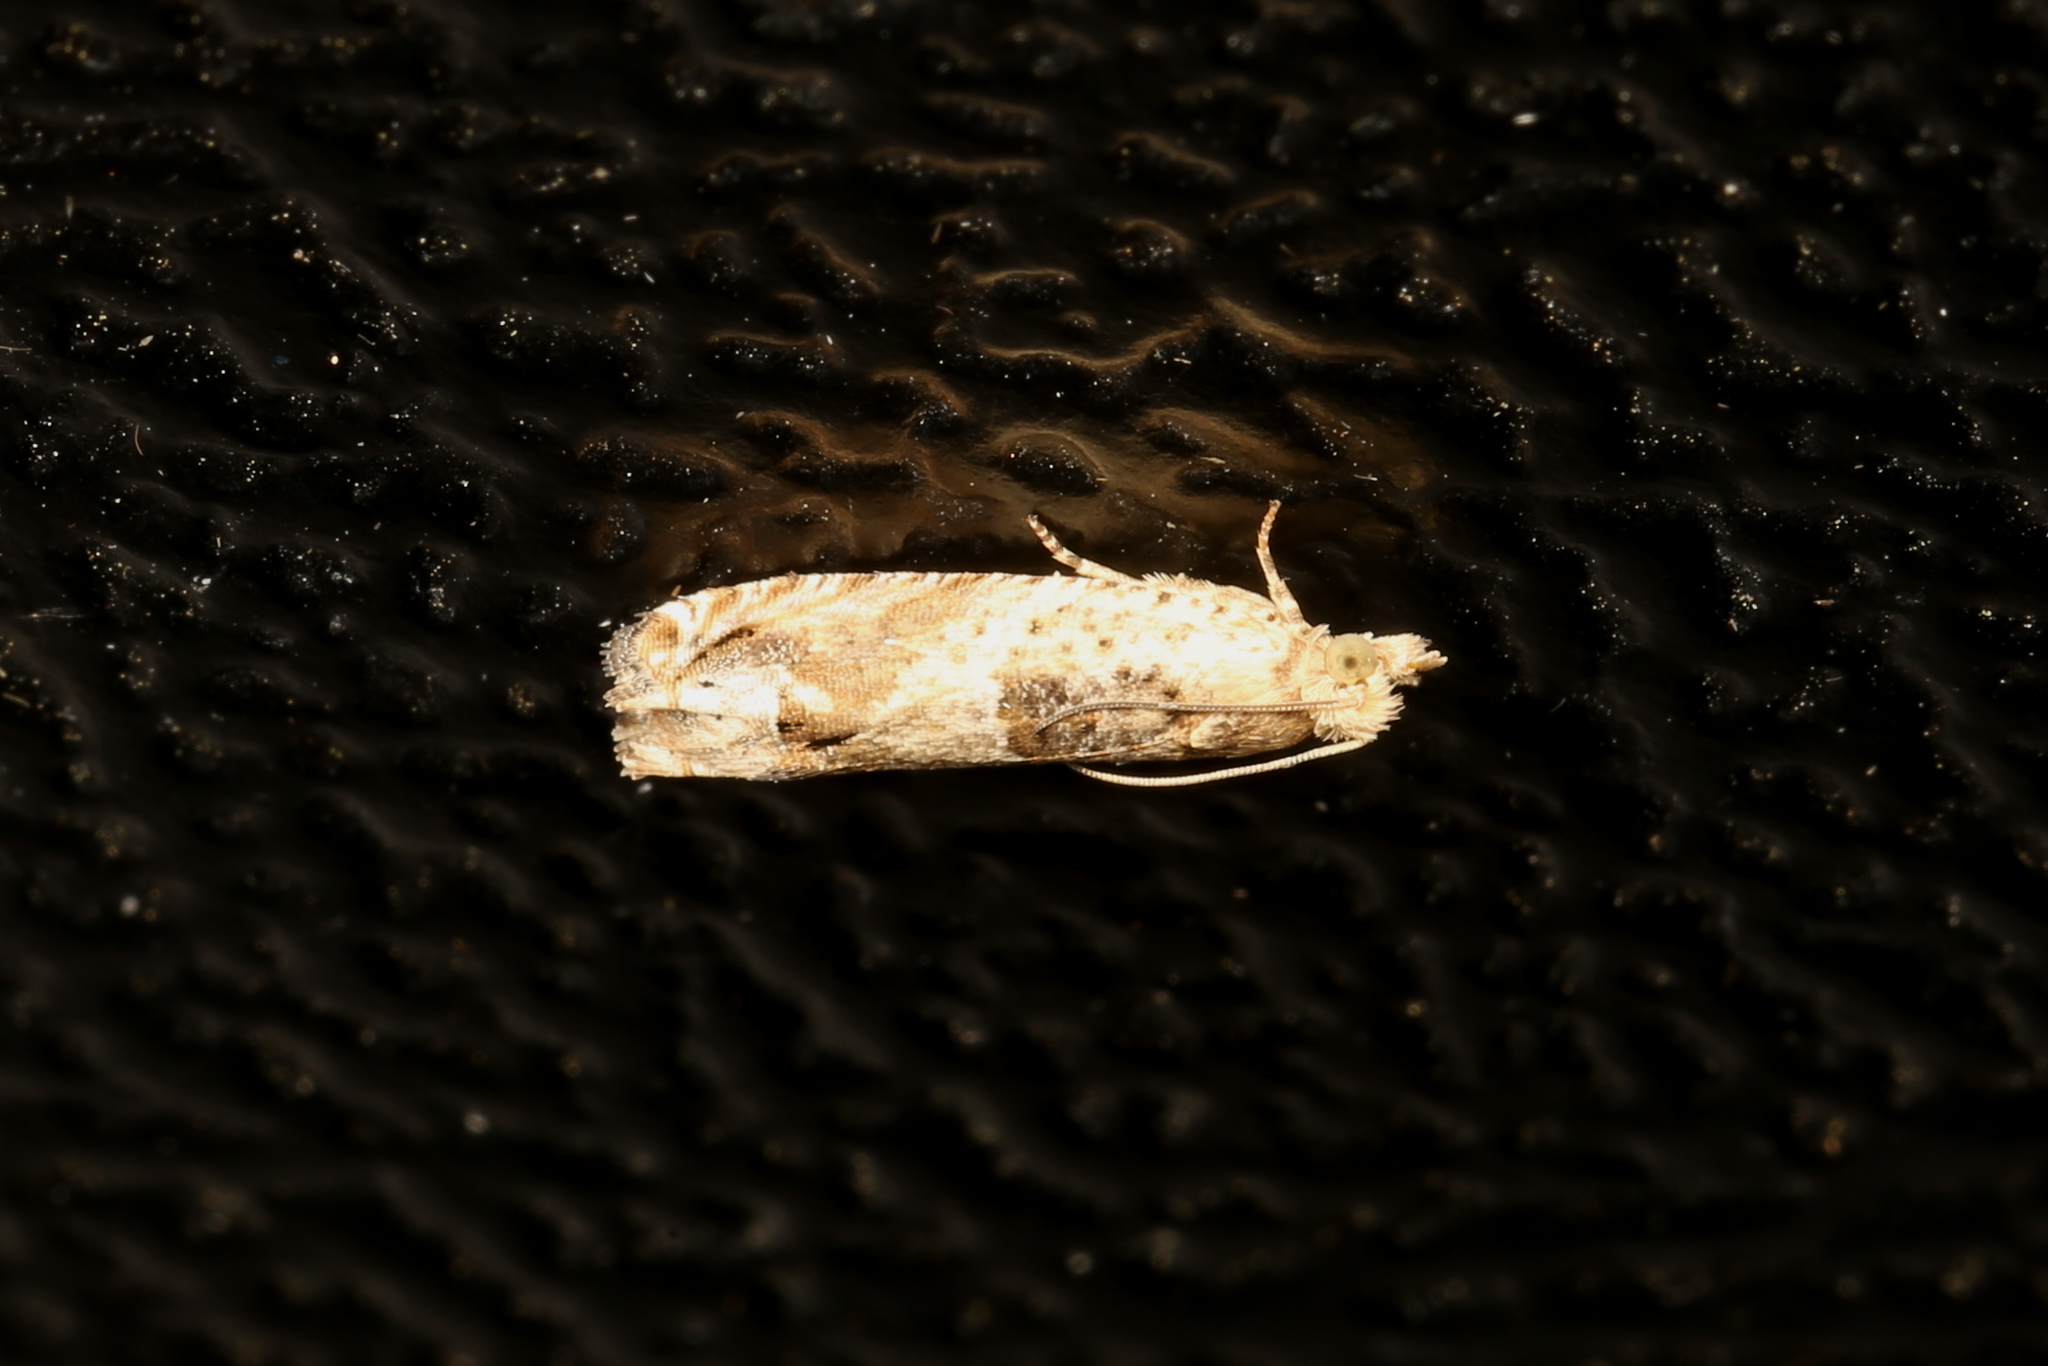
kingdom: Animalia
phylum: Arthropoda
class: Insecta
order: Lepidoptera
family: Tortricidae
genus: Crocidosema
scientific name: Crocidosema plebejana
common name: Southern bell
